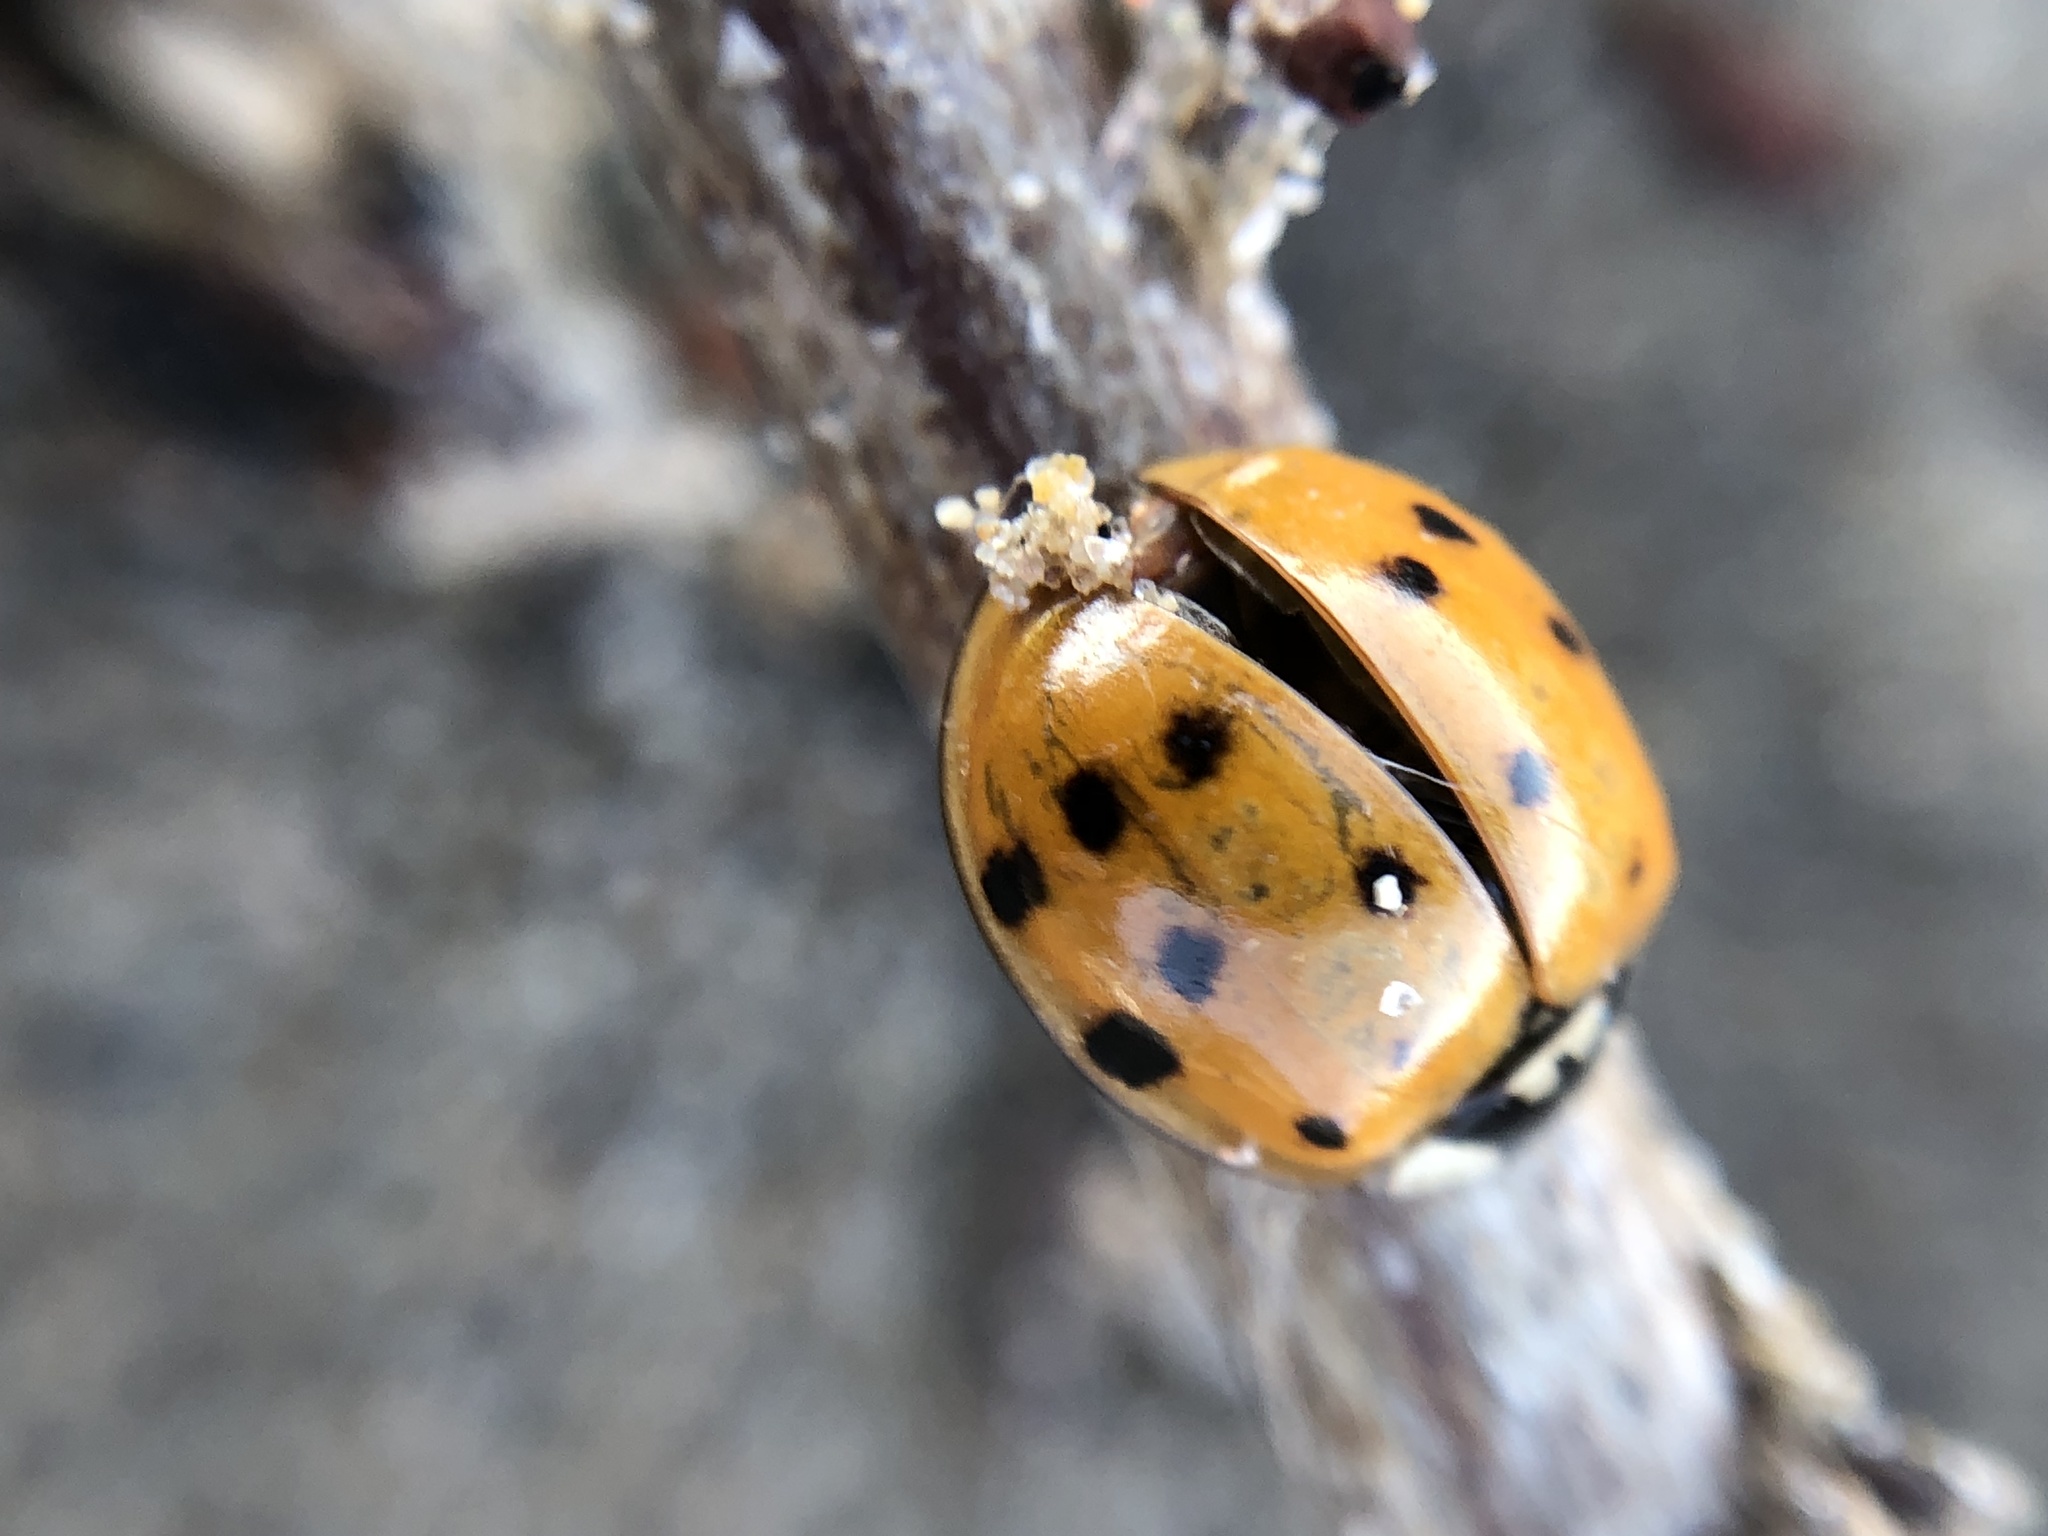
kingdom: Animalia
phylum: Arthropoda
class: Insecta
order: Coleoptera
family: Coccinellidae
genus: Harmonia
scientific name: Harmonia axyridis
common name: Harlequin ladybird
